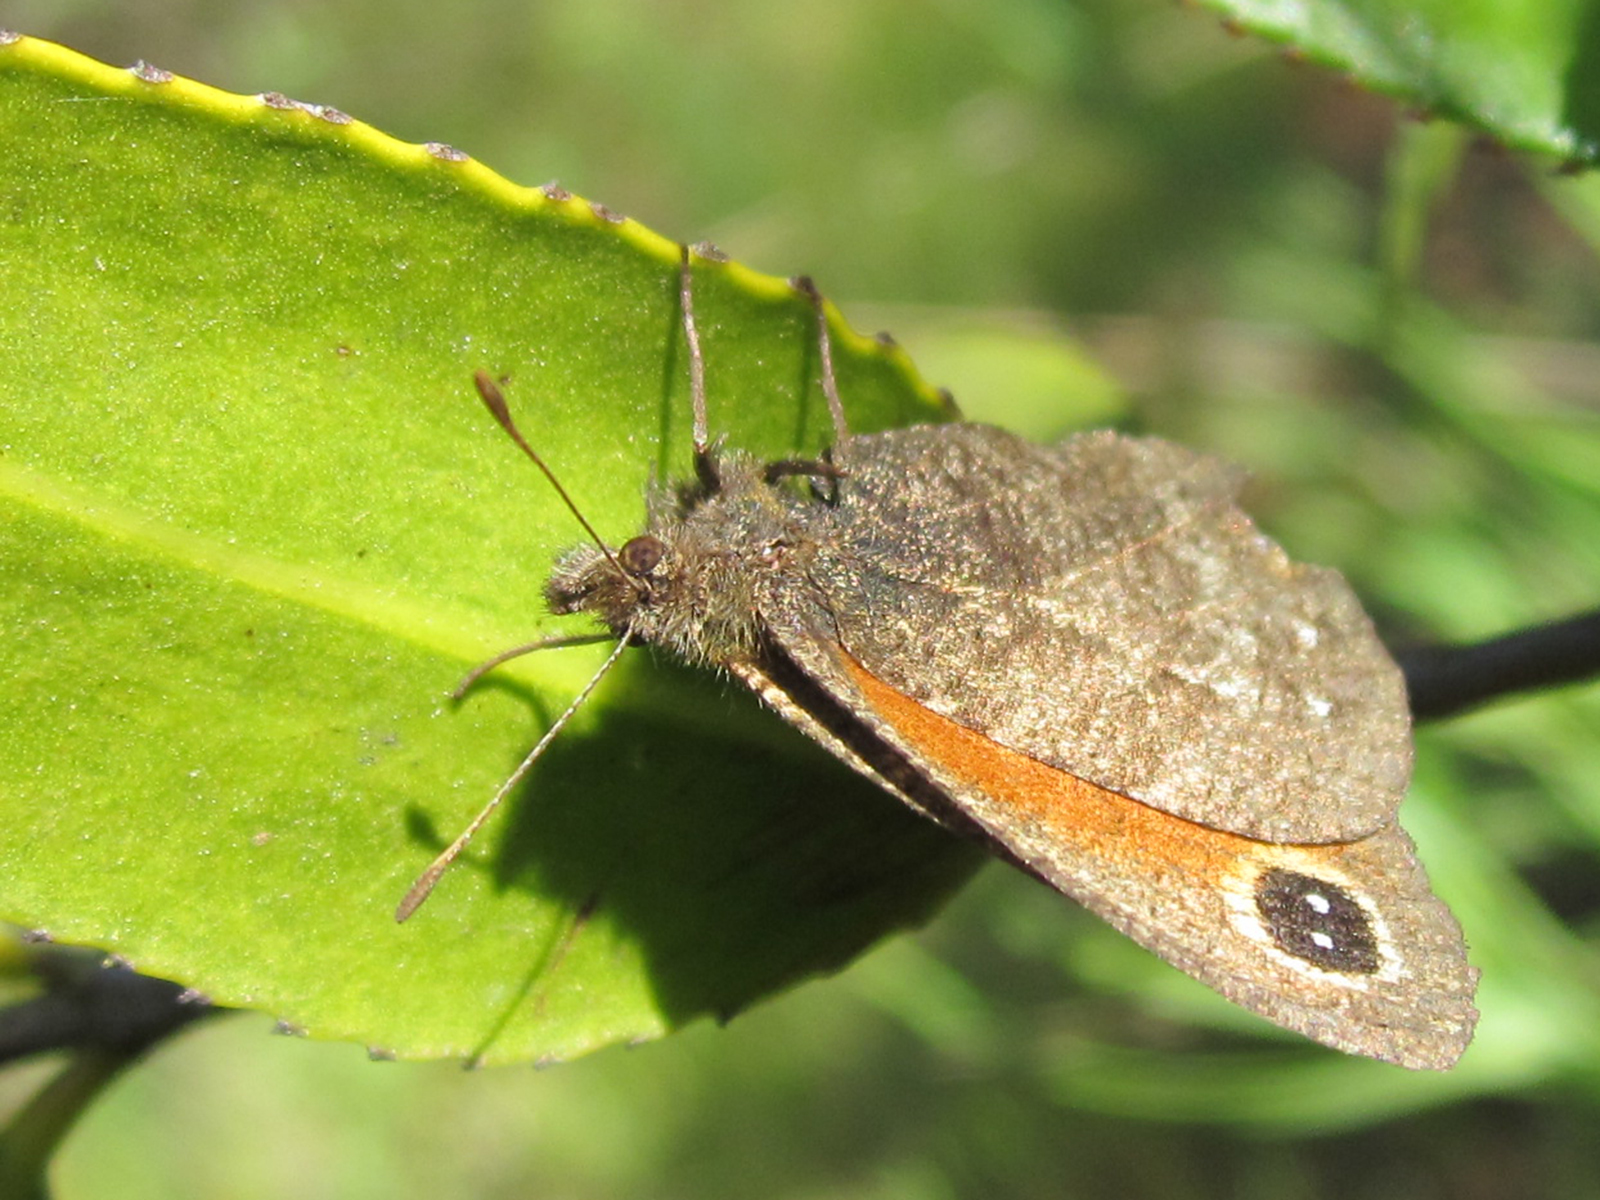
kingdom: Animalia
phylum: Arthropoda
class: Insecta
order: Lepidoptera
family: Nymphalidae
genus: Auca
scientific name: Auca coctei
